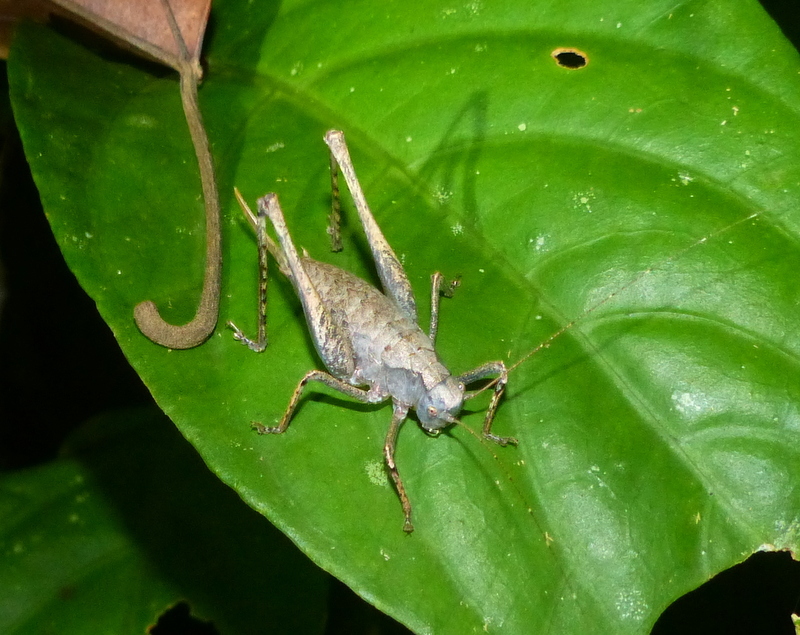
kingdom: Animalia
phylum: Arthropoda
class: Insecta
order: Orthoptera
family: Tettigoniidae
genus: Apteroscirtus
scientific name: Apteroscirtus cristatus
